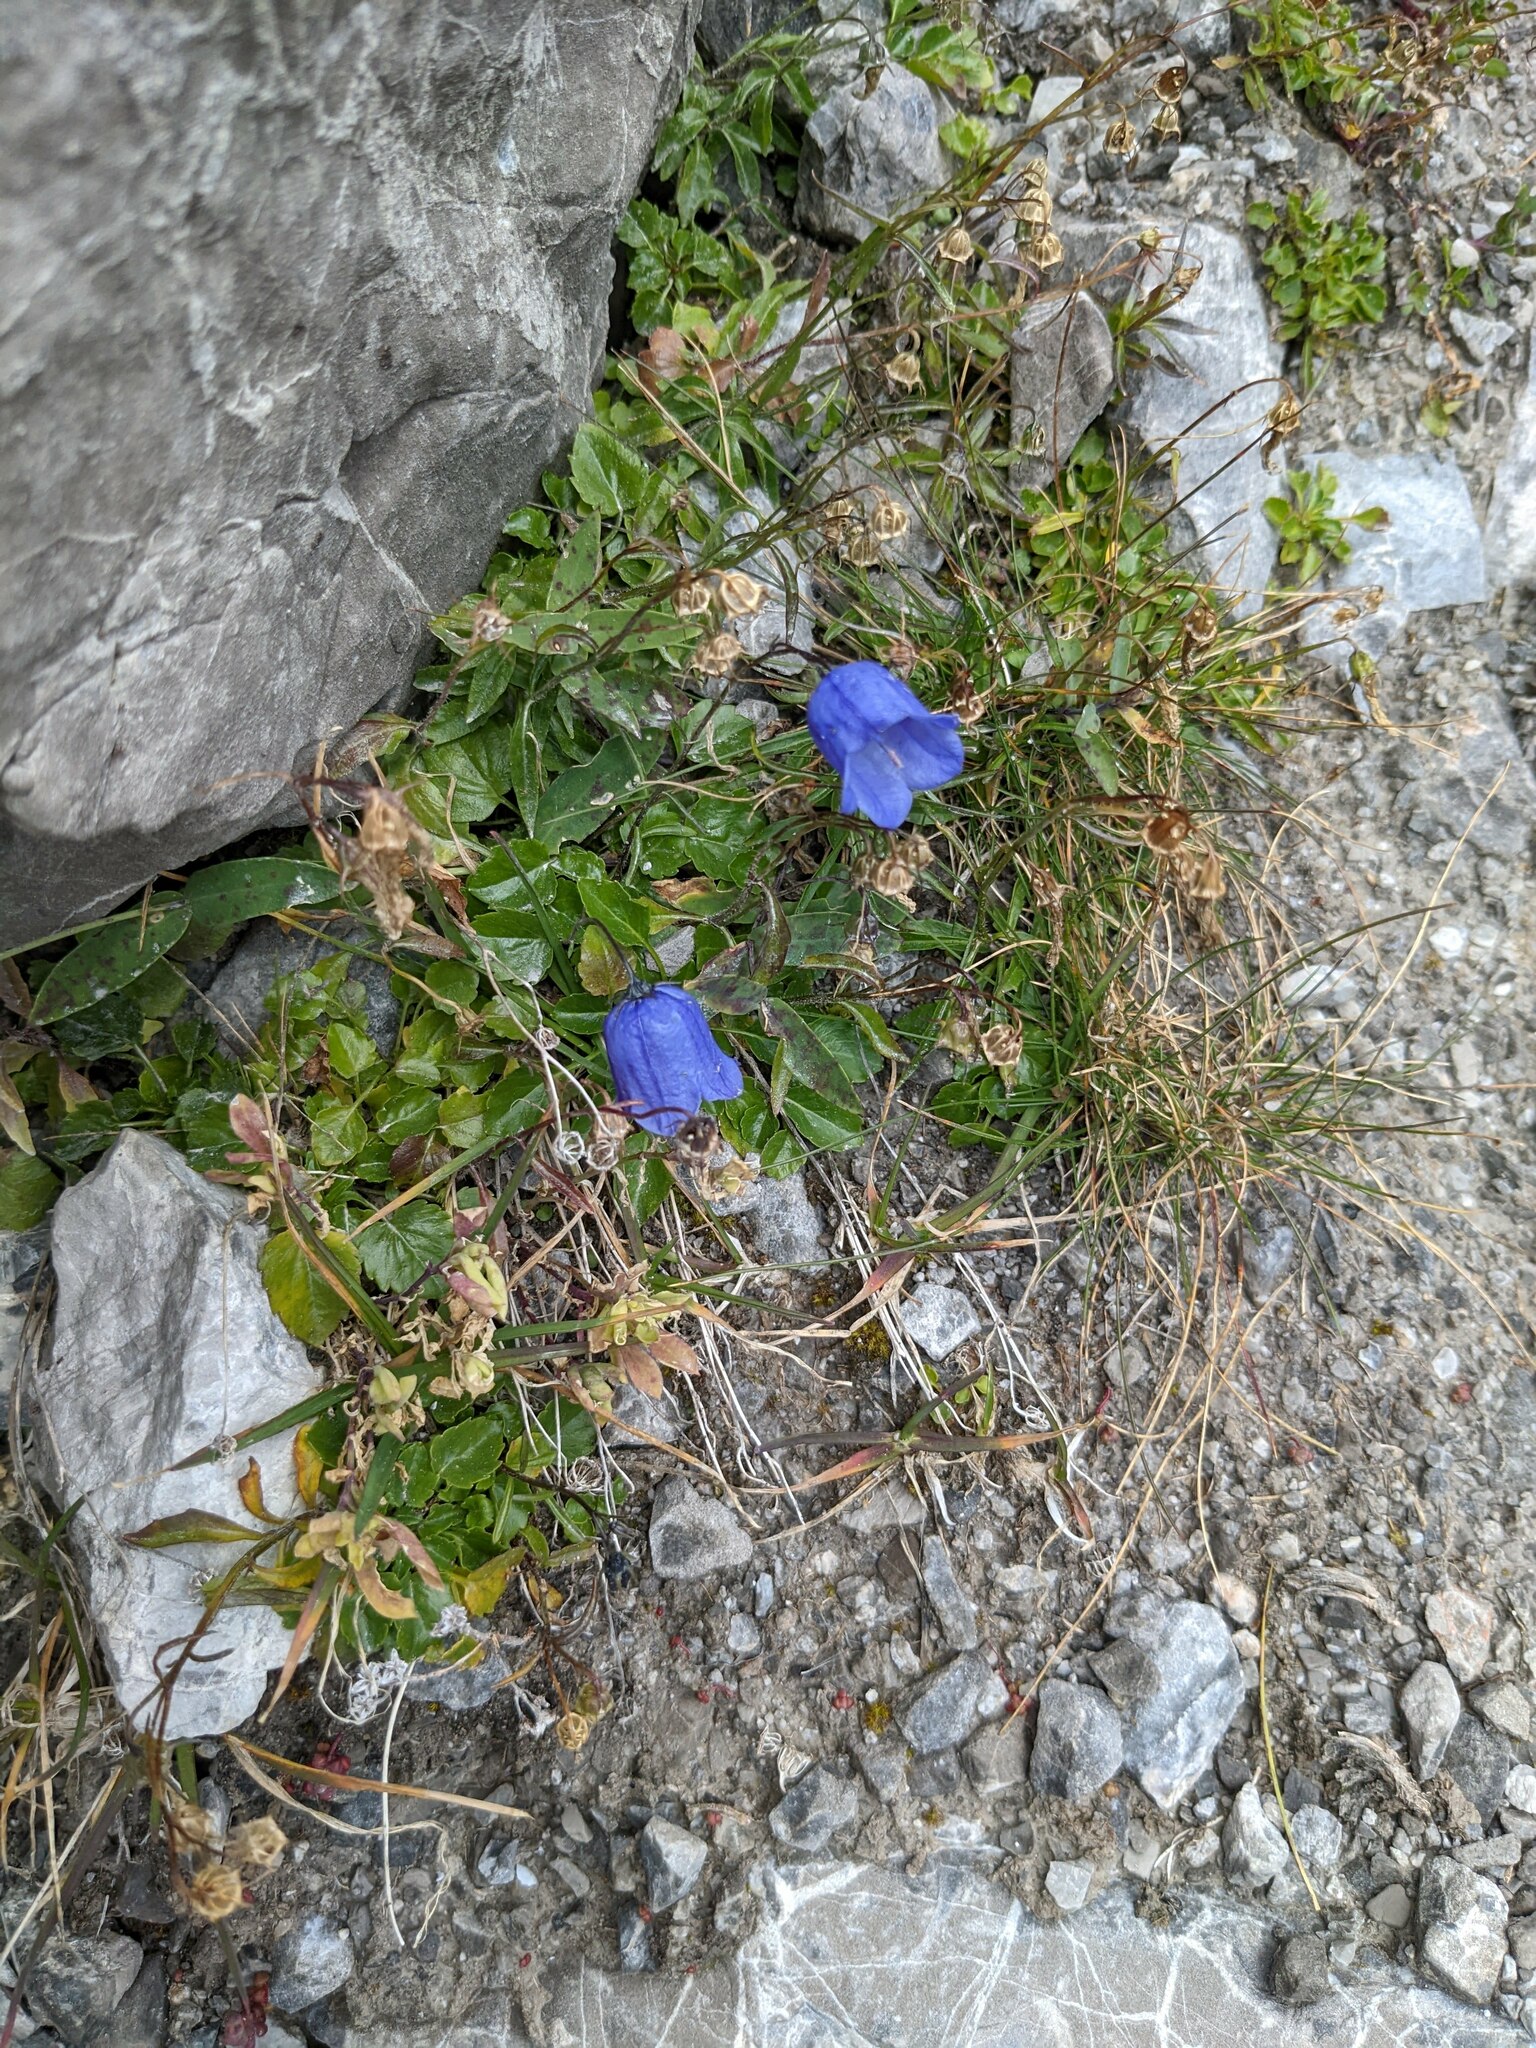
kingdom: Plantae
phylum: Tracheophyta
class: Magnoliopsida
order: Asterales
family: Campanulaceae
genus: Campanula
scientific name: Campanula cochleariifolia
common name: Fairies'-thimbles
